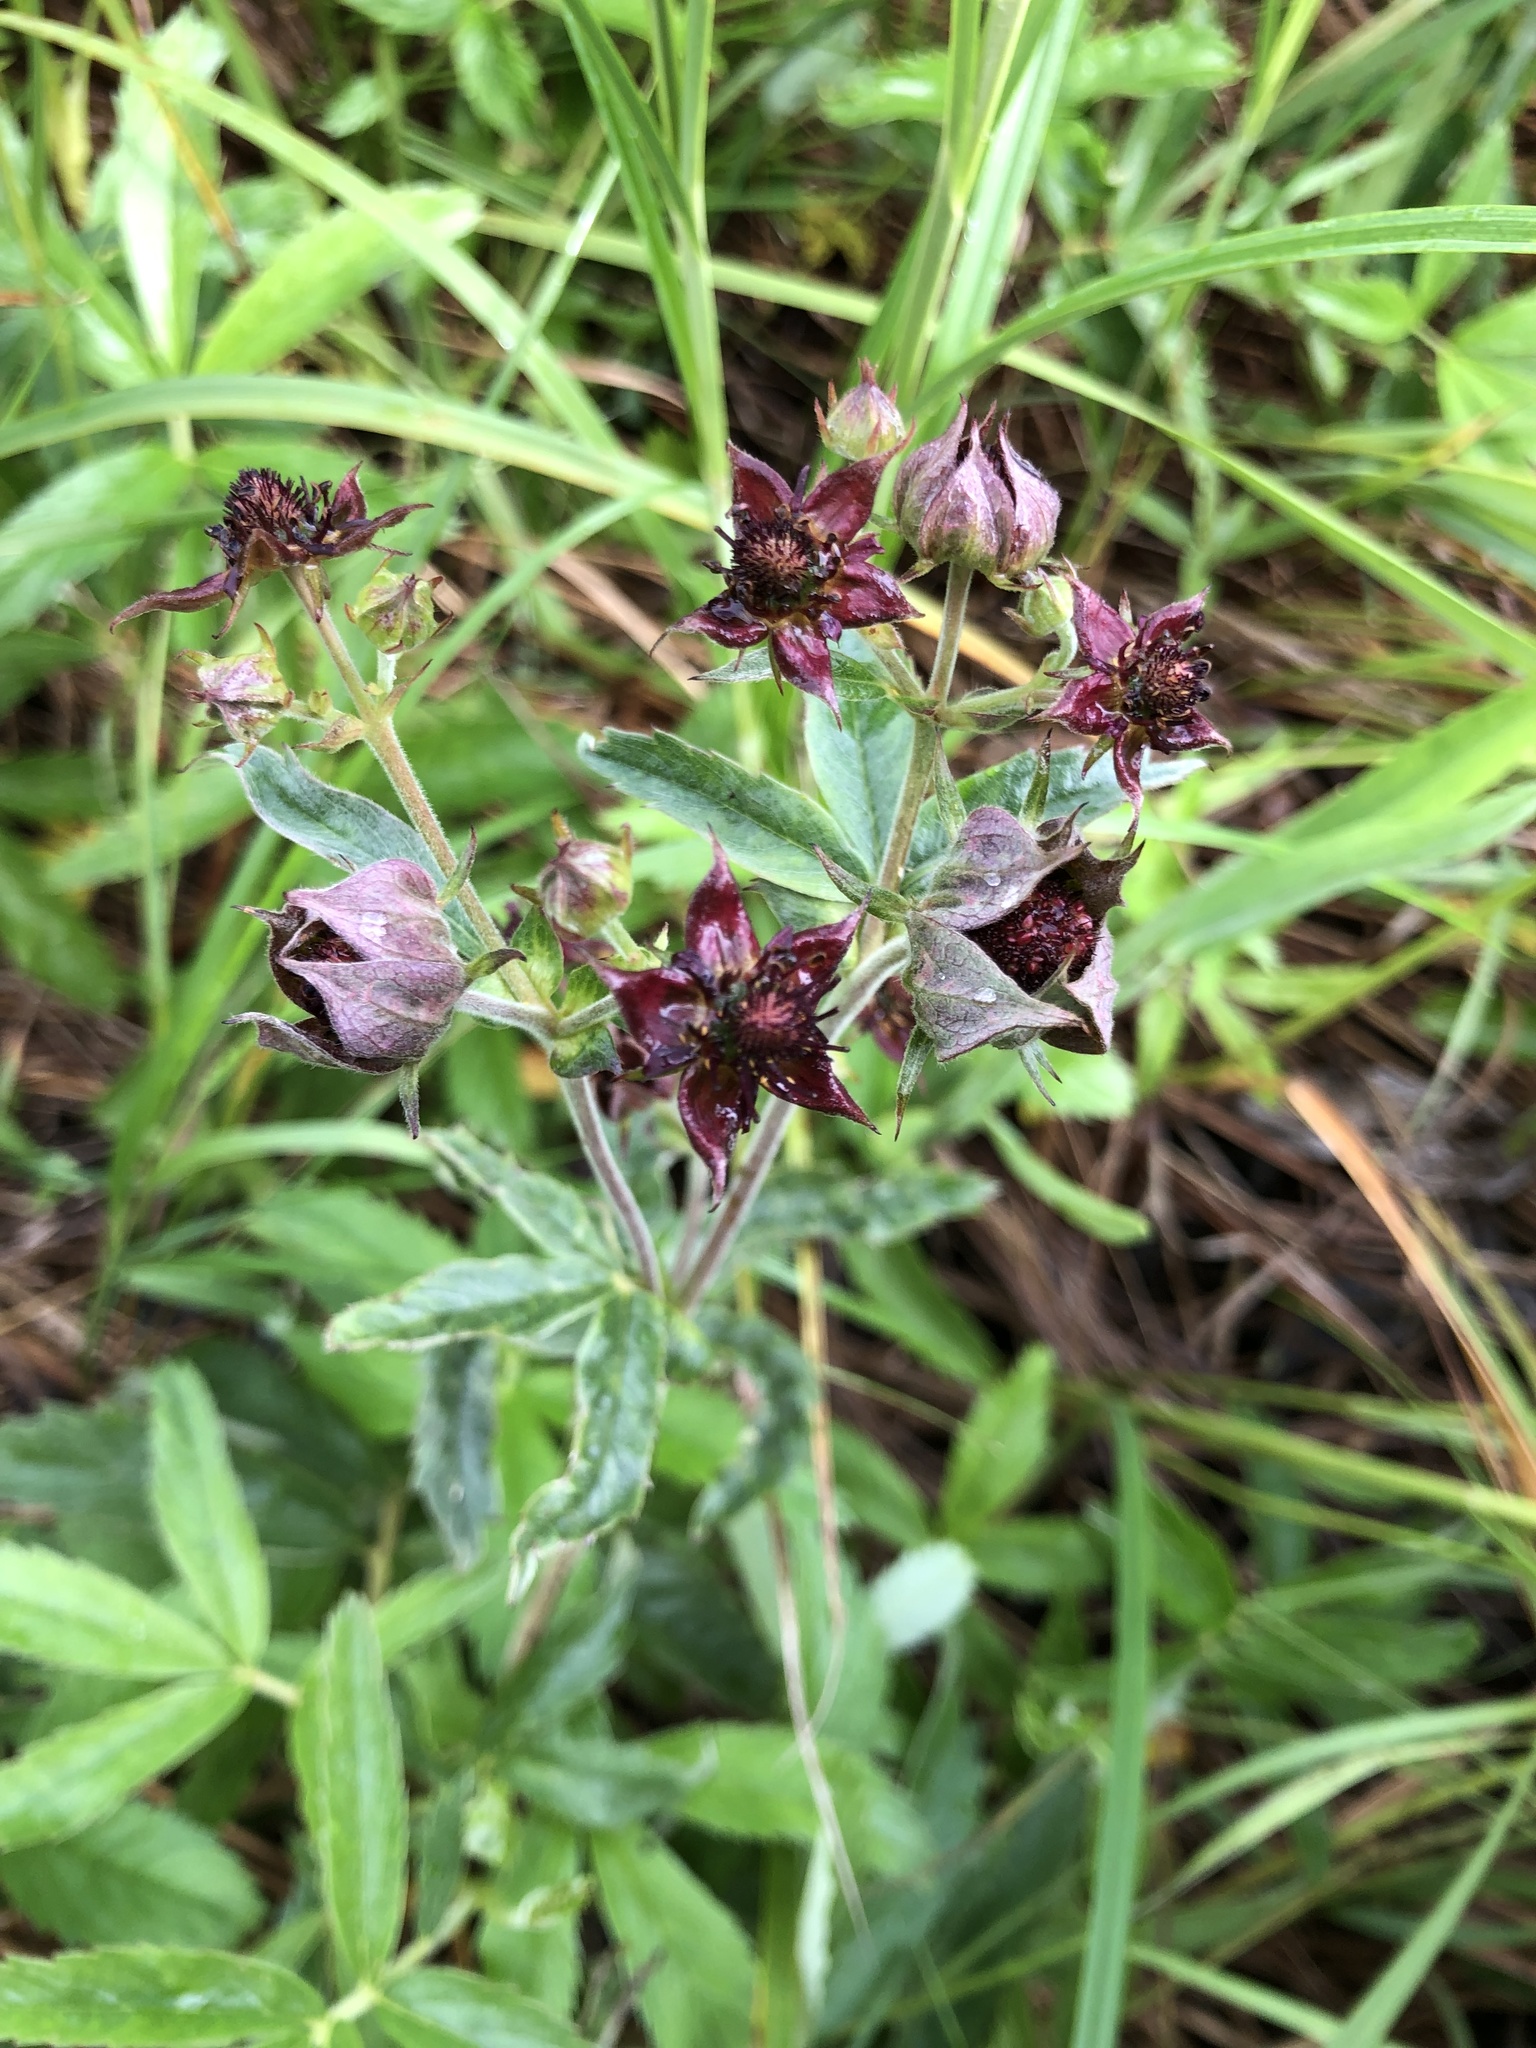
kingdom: Plantae
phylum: Tracheophyta
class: Magnoliopsida
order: Rosales
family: Rosaceae
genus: Comarum
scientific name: Comarum palustre
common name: Marsh cinquefoil
